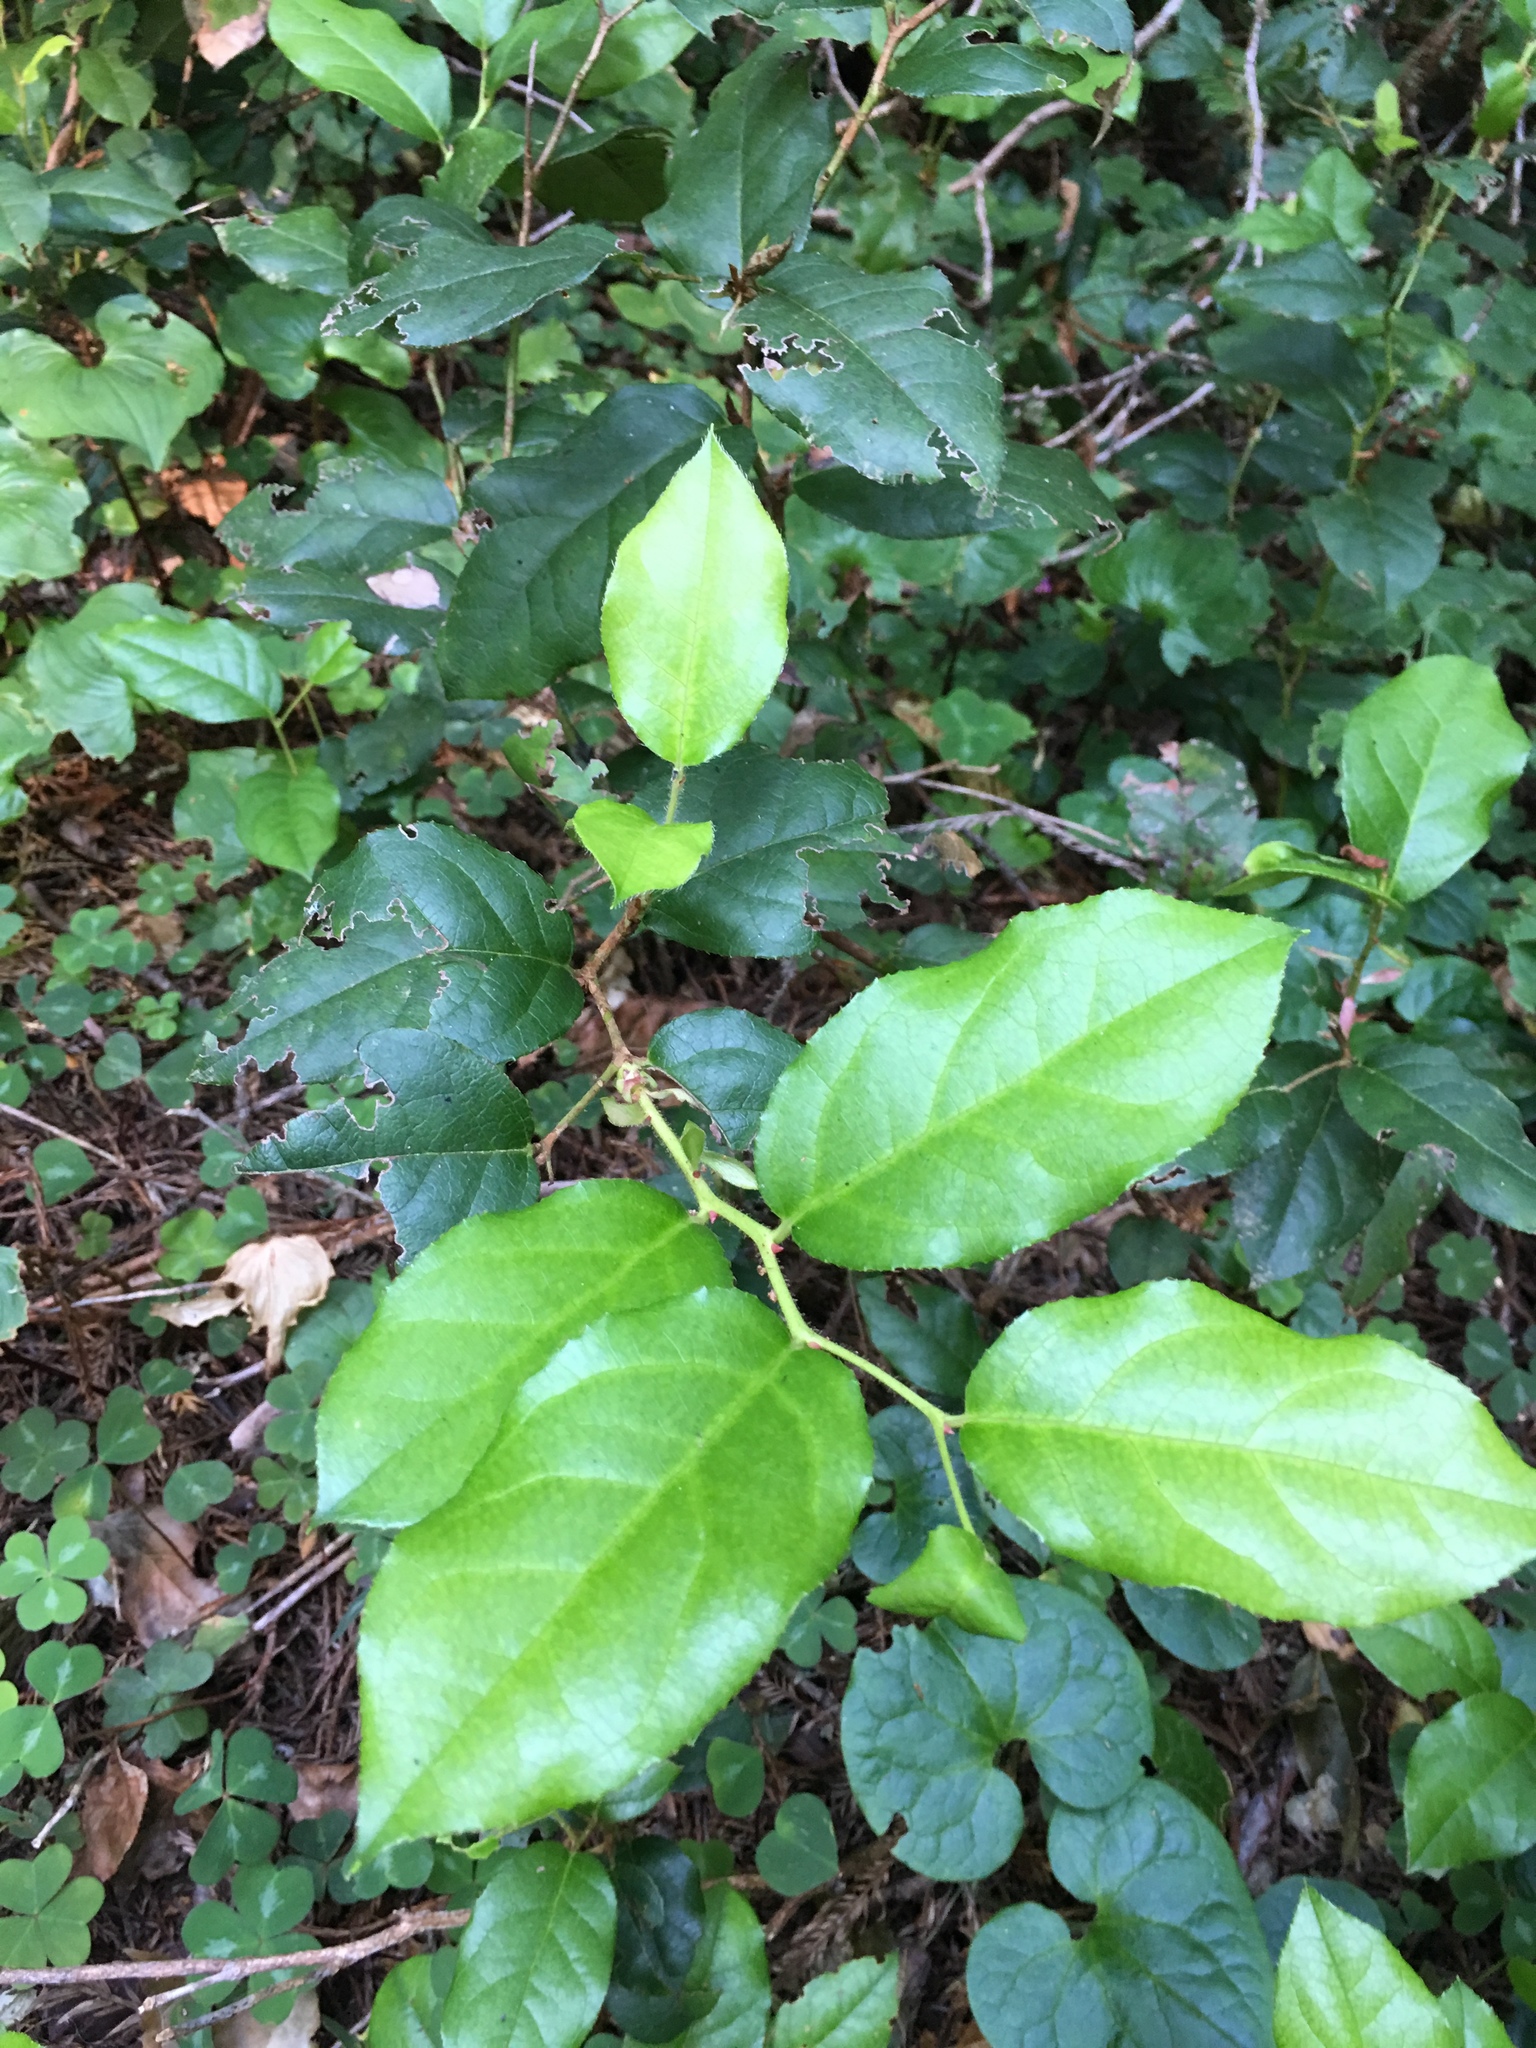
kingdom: Plantae
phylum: Tracheophyta
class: Magnoliopsida
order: Ericales
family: Ericaceae
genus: Gaultheria
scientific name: Gaultheria shallon
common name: Shallon
